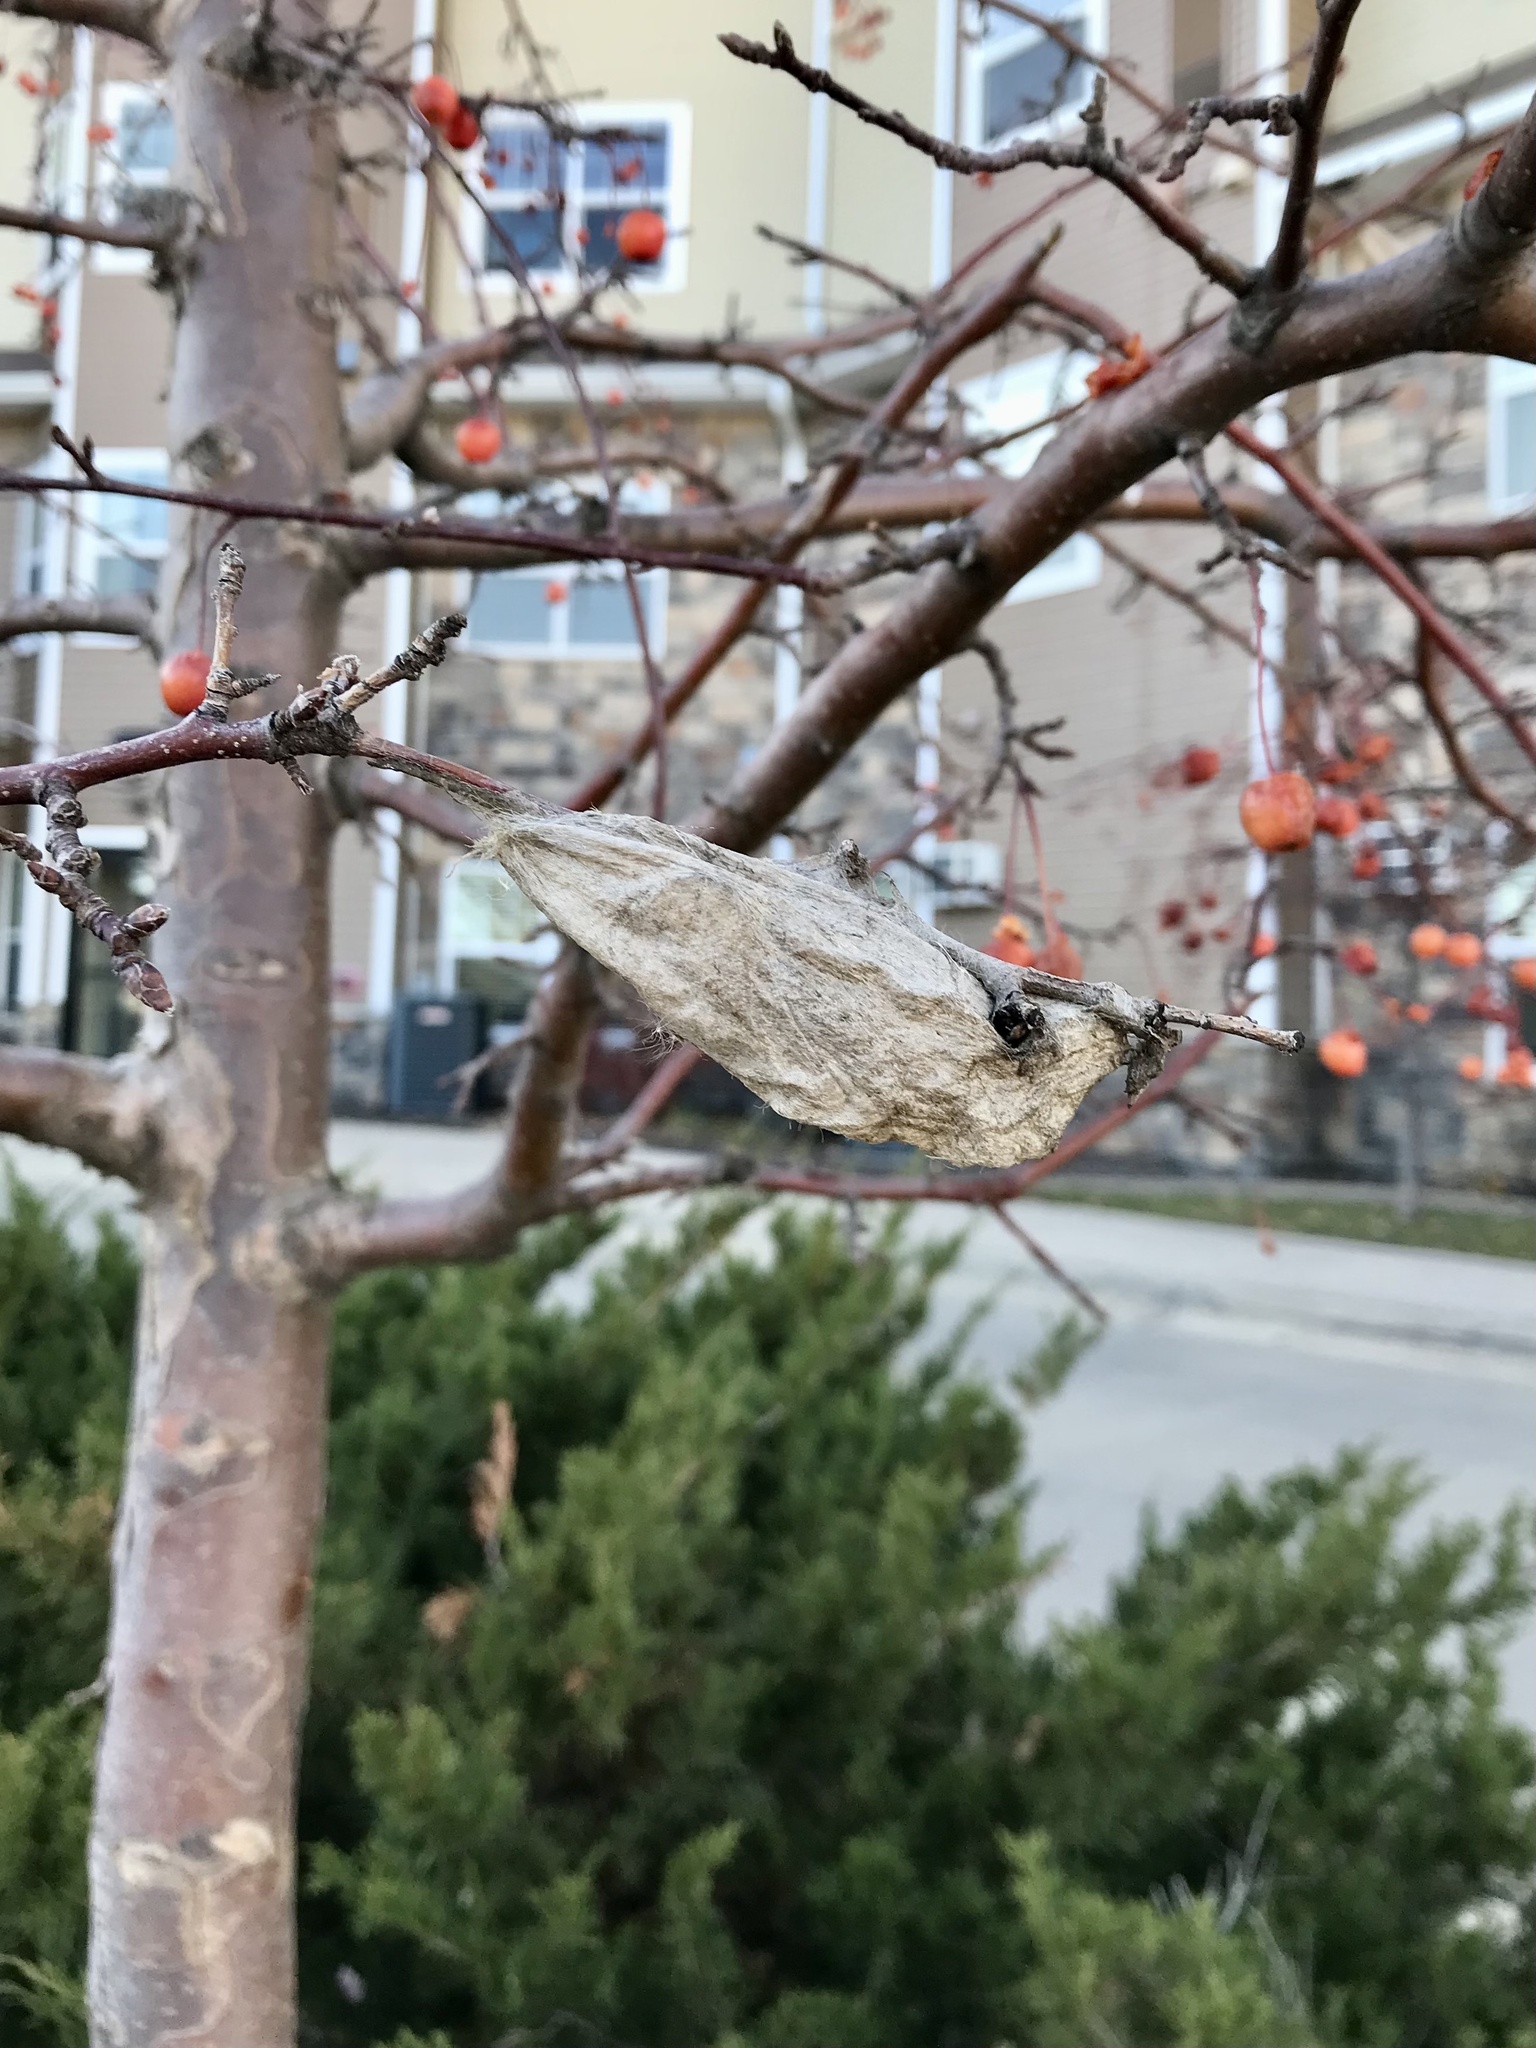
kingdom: Animalia
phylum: Arthropoda
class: Insecta
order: Lepidoptera
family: Saturniidae
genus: Hyalophora
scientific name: Hyalophora cecropia
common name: Cecropia silkmoth
